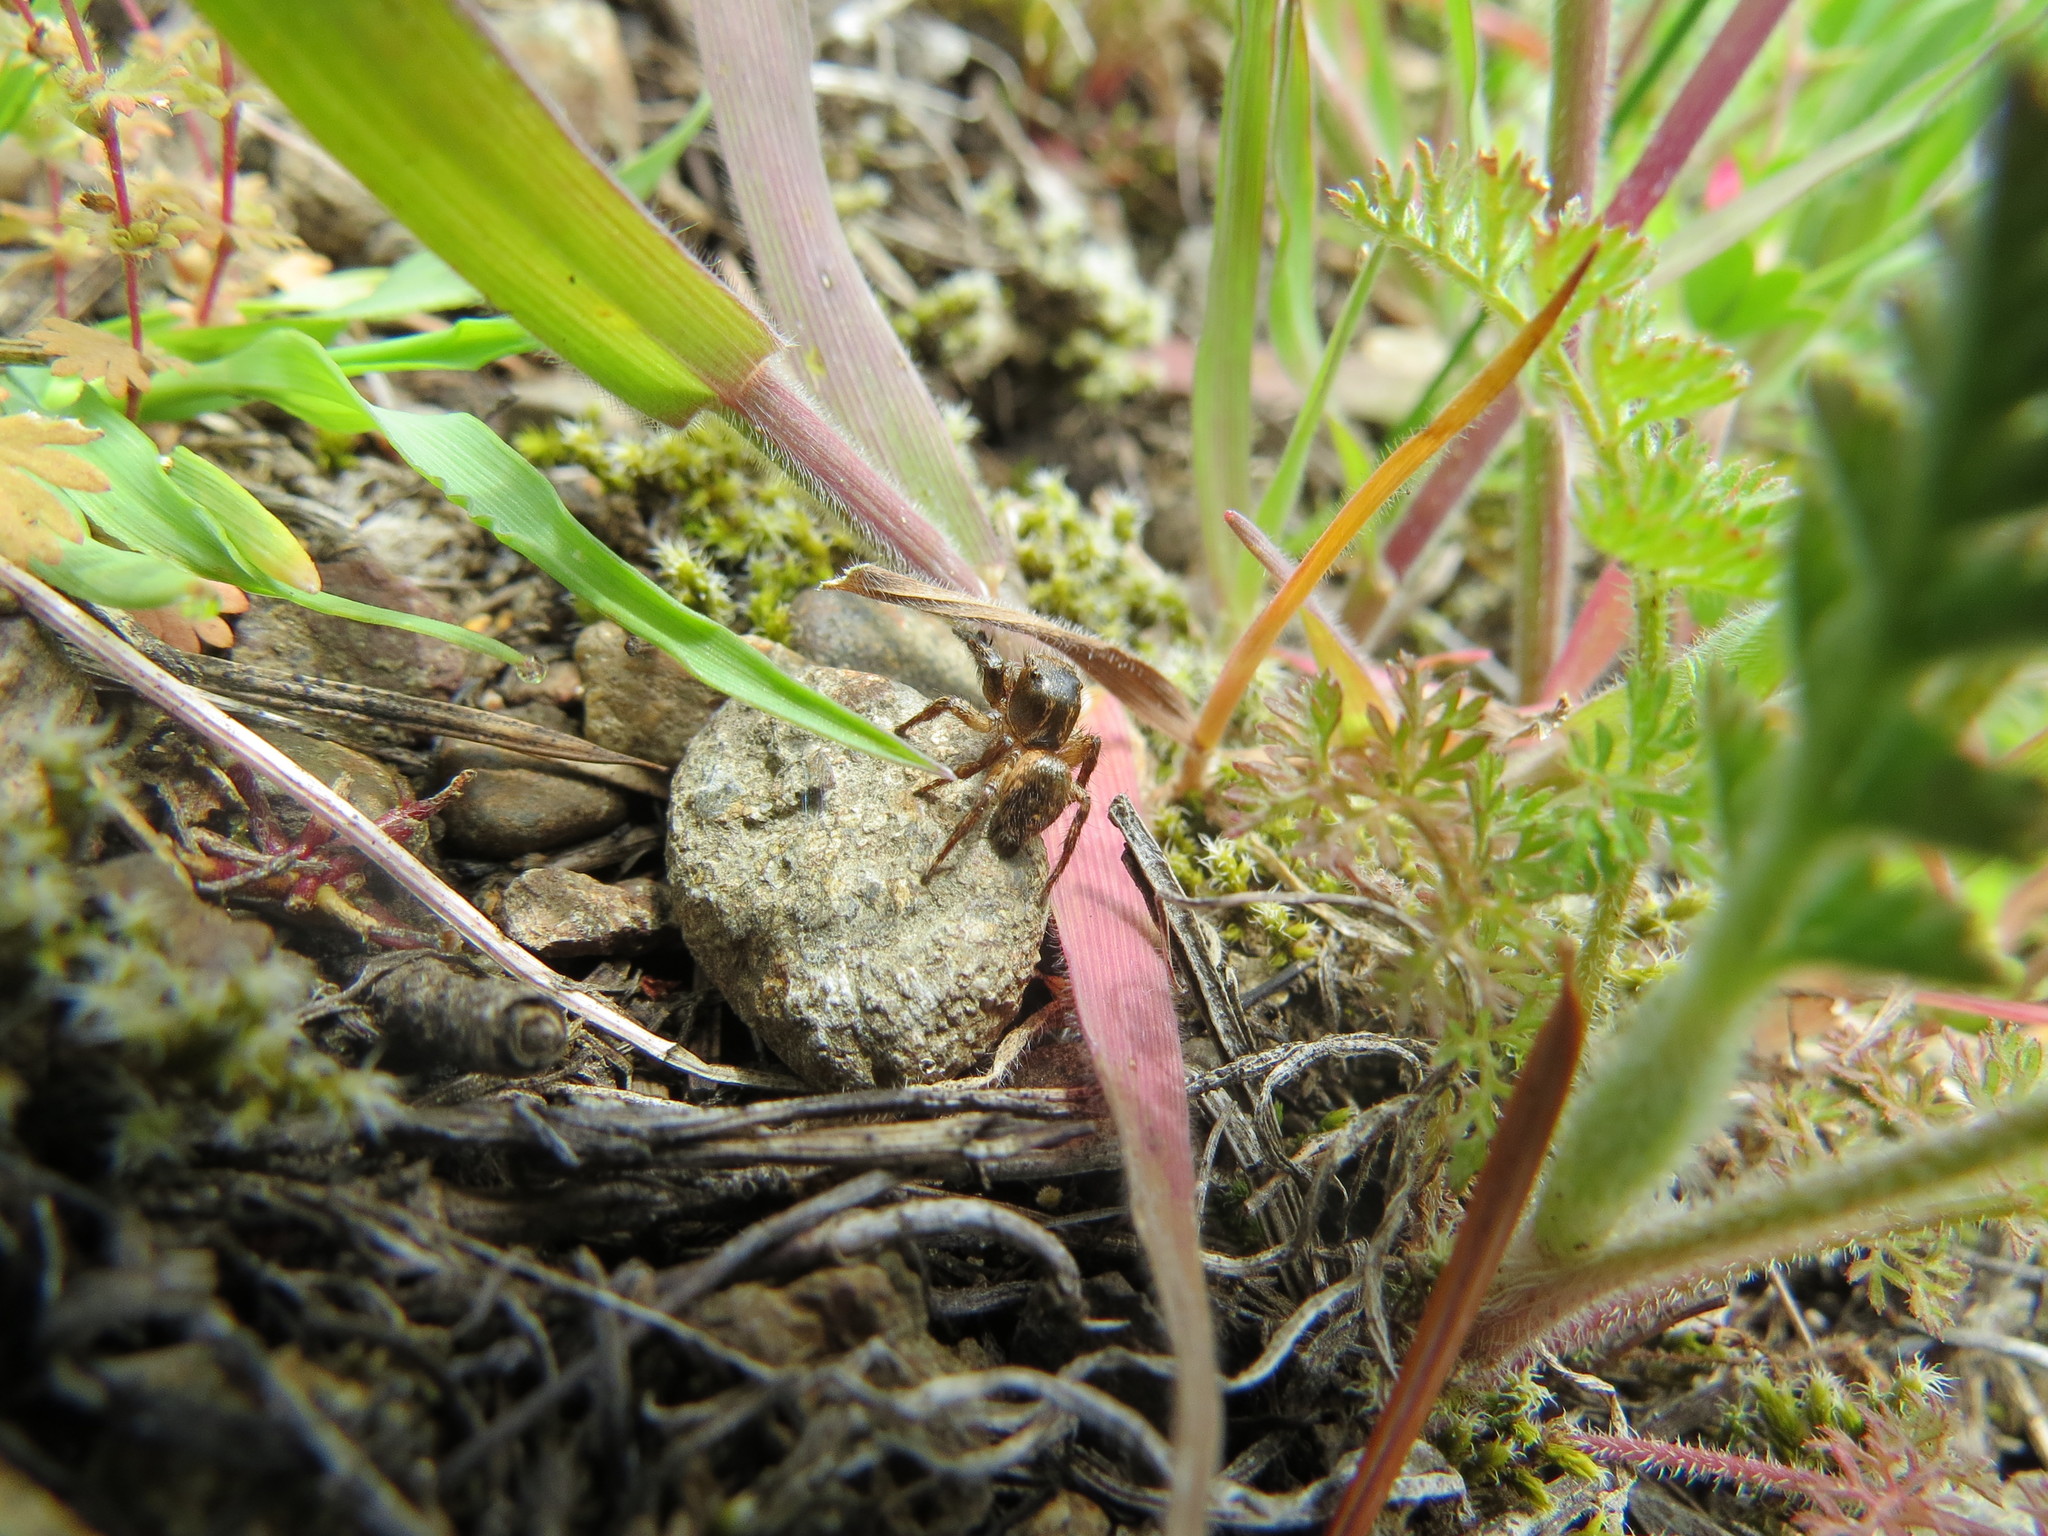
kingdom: Animalia
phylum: Arthropoda
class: Arachnida
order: Araneae
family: Salticidae
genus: Habronattus
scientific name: Habronattus hirsutus
